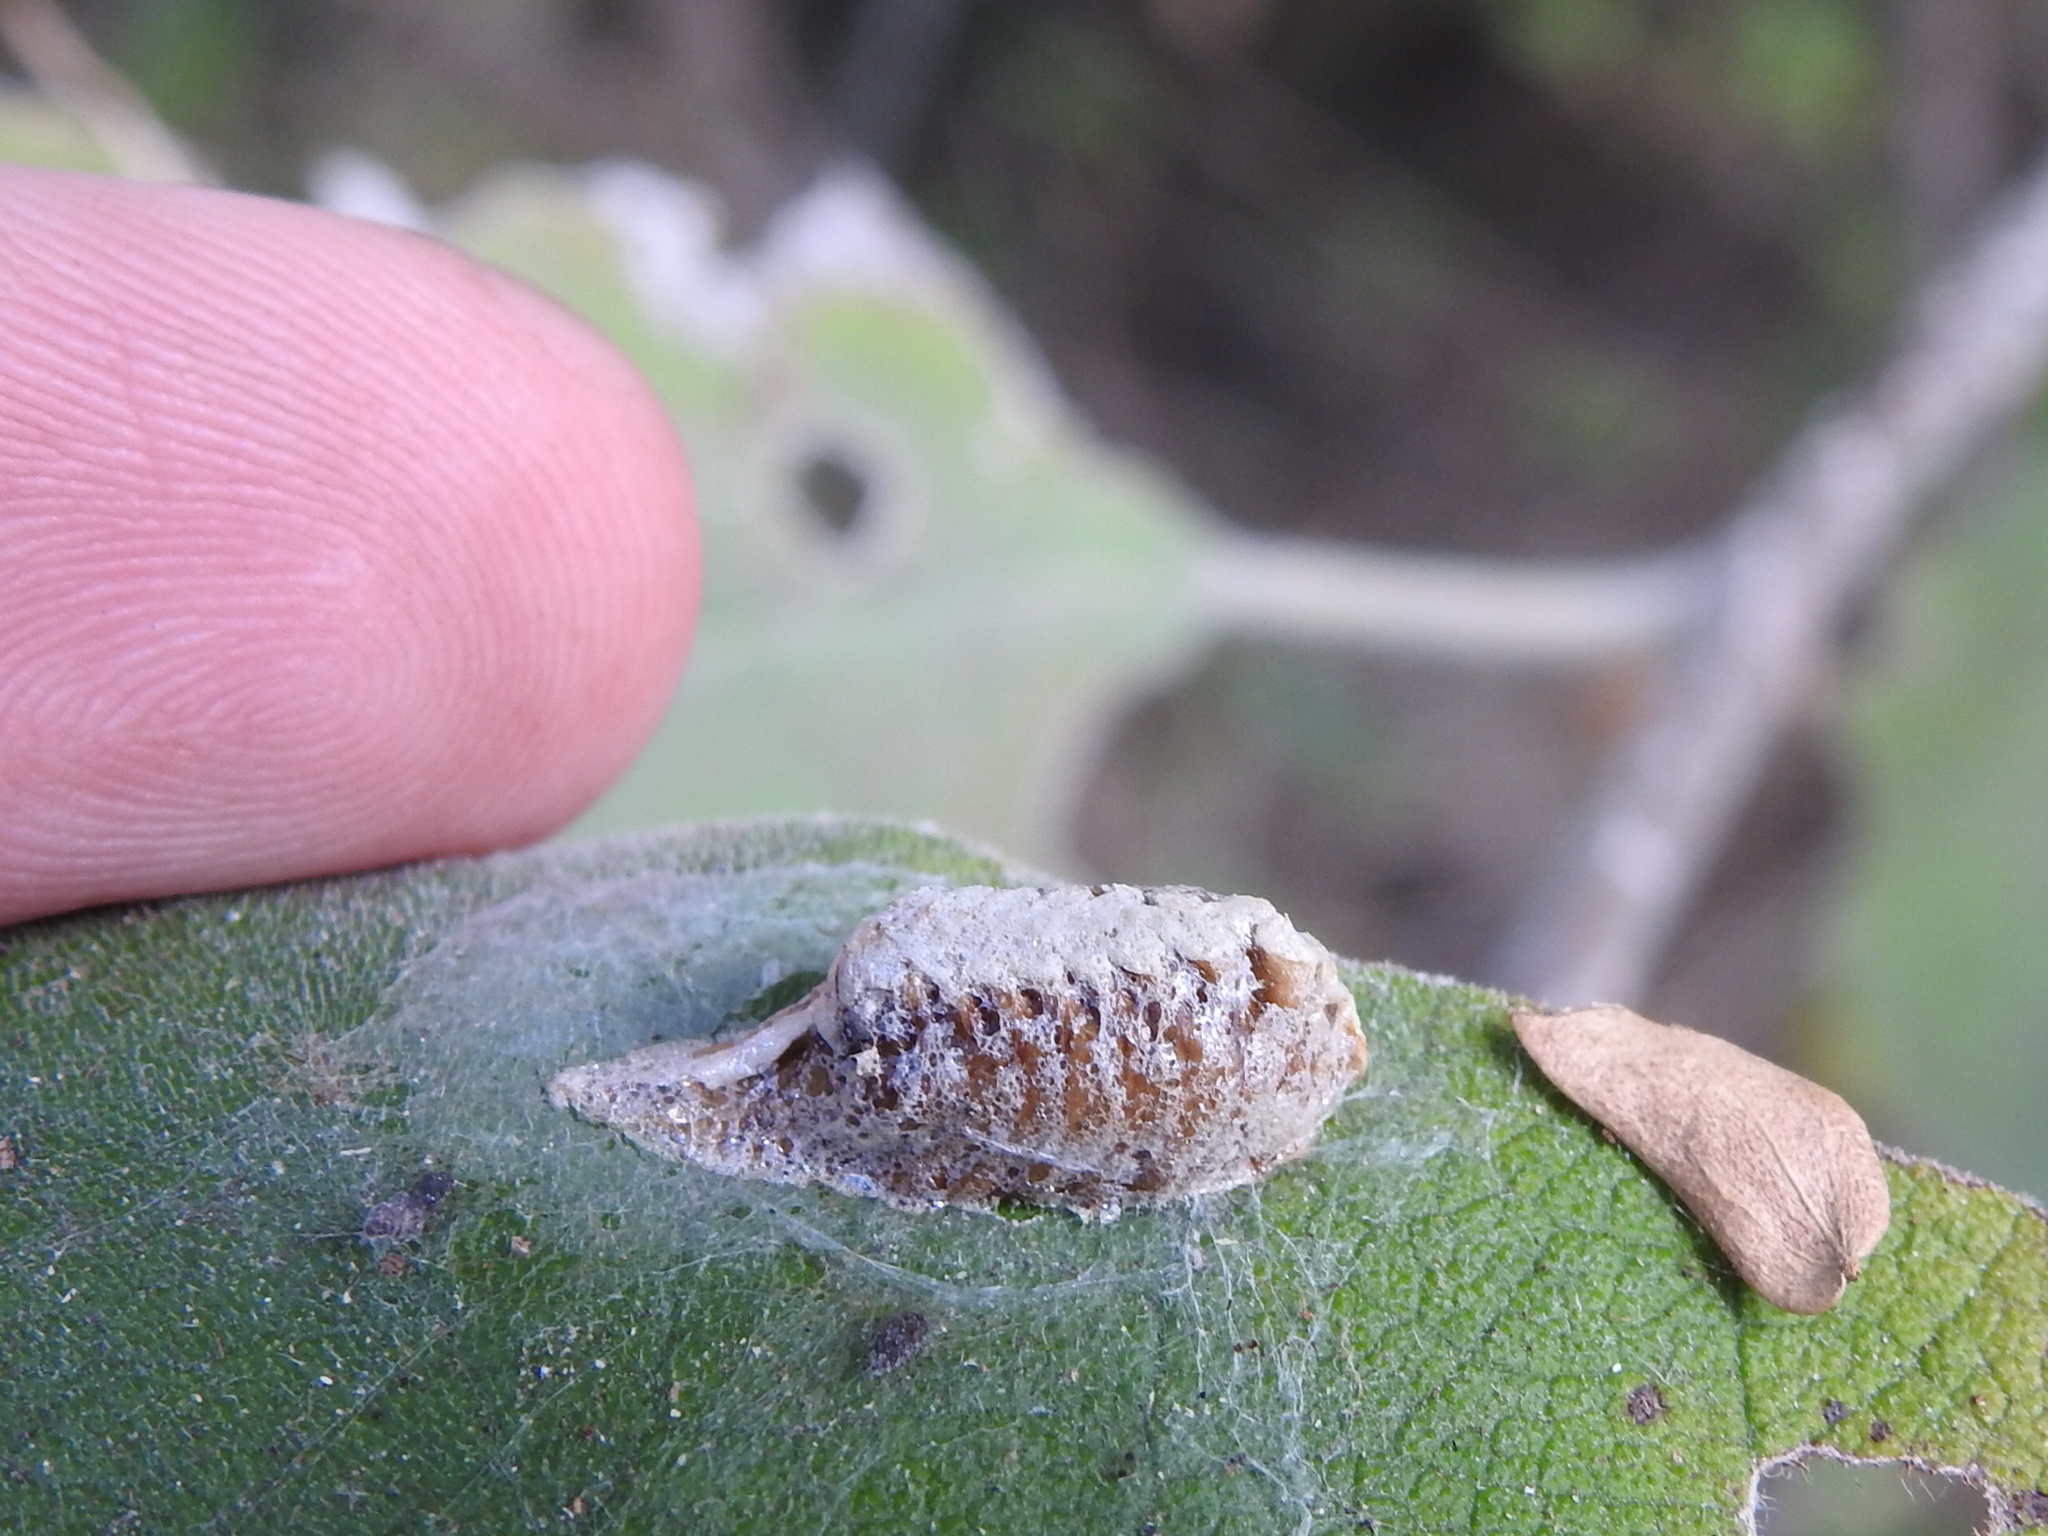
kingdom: Animalia
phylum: Arthropoda
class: Insecta
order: Mantodea
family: Mantidae
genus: Stagmomantis
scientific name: Stagmomantis resacae
